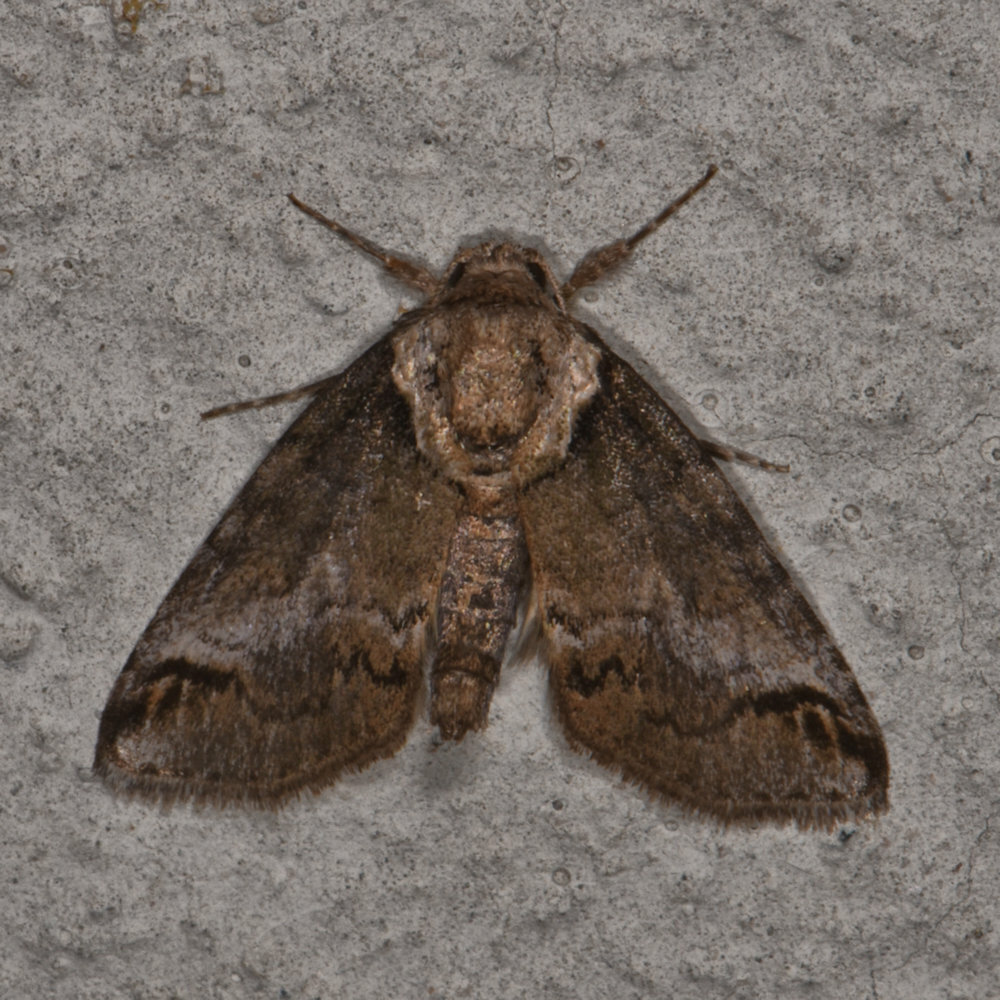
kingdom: Animalia
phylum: Arthropoda
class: Insecta
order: Lepidoptera
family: Nolidae
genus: Baileya
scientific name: Baileya australis
